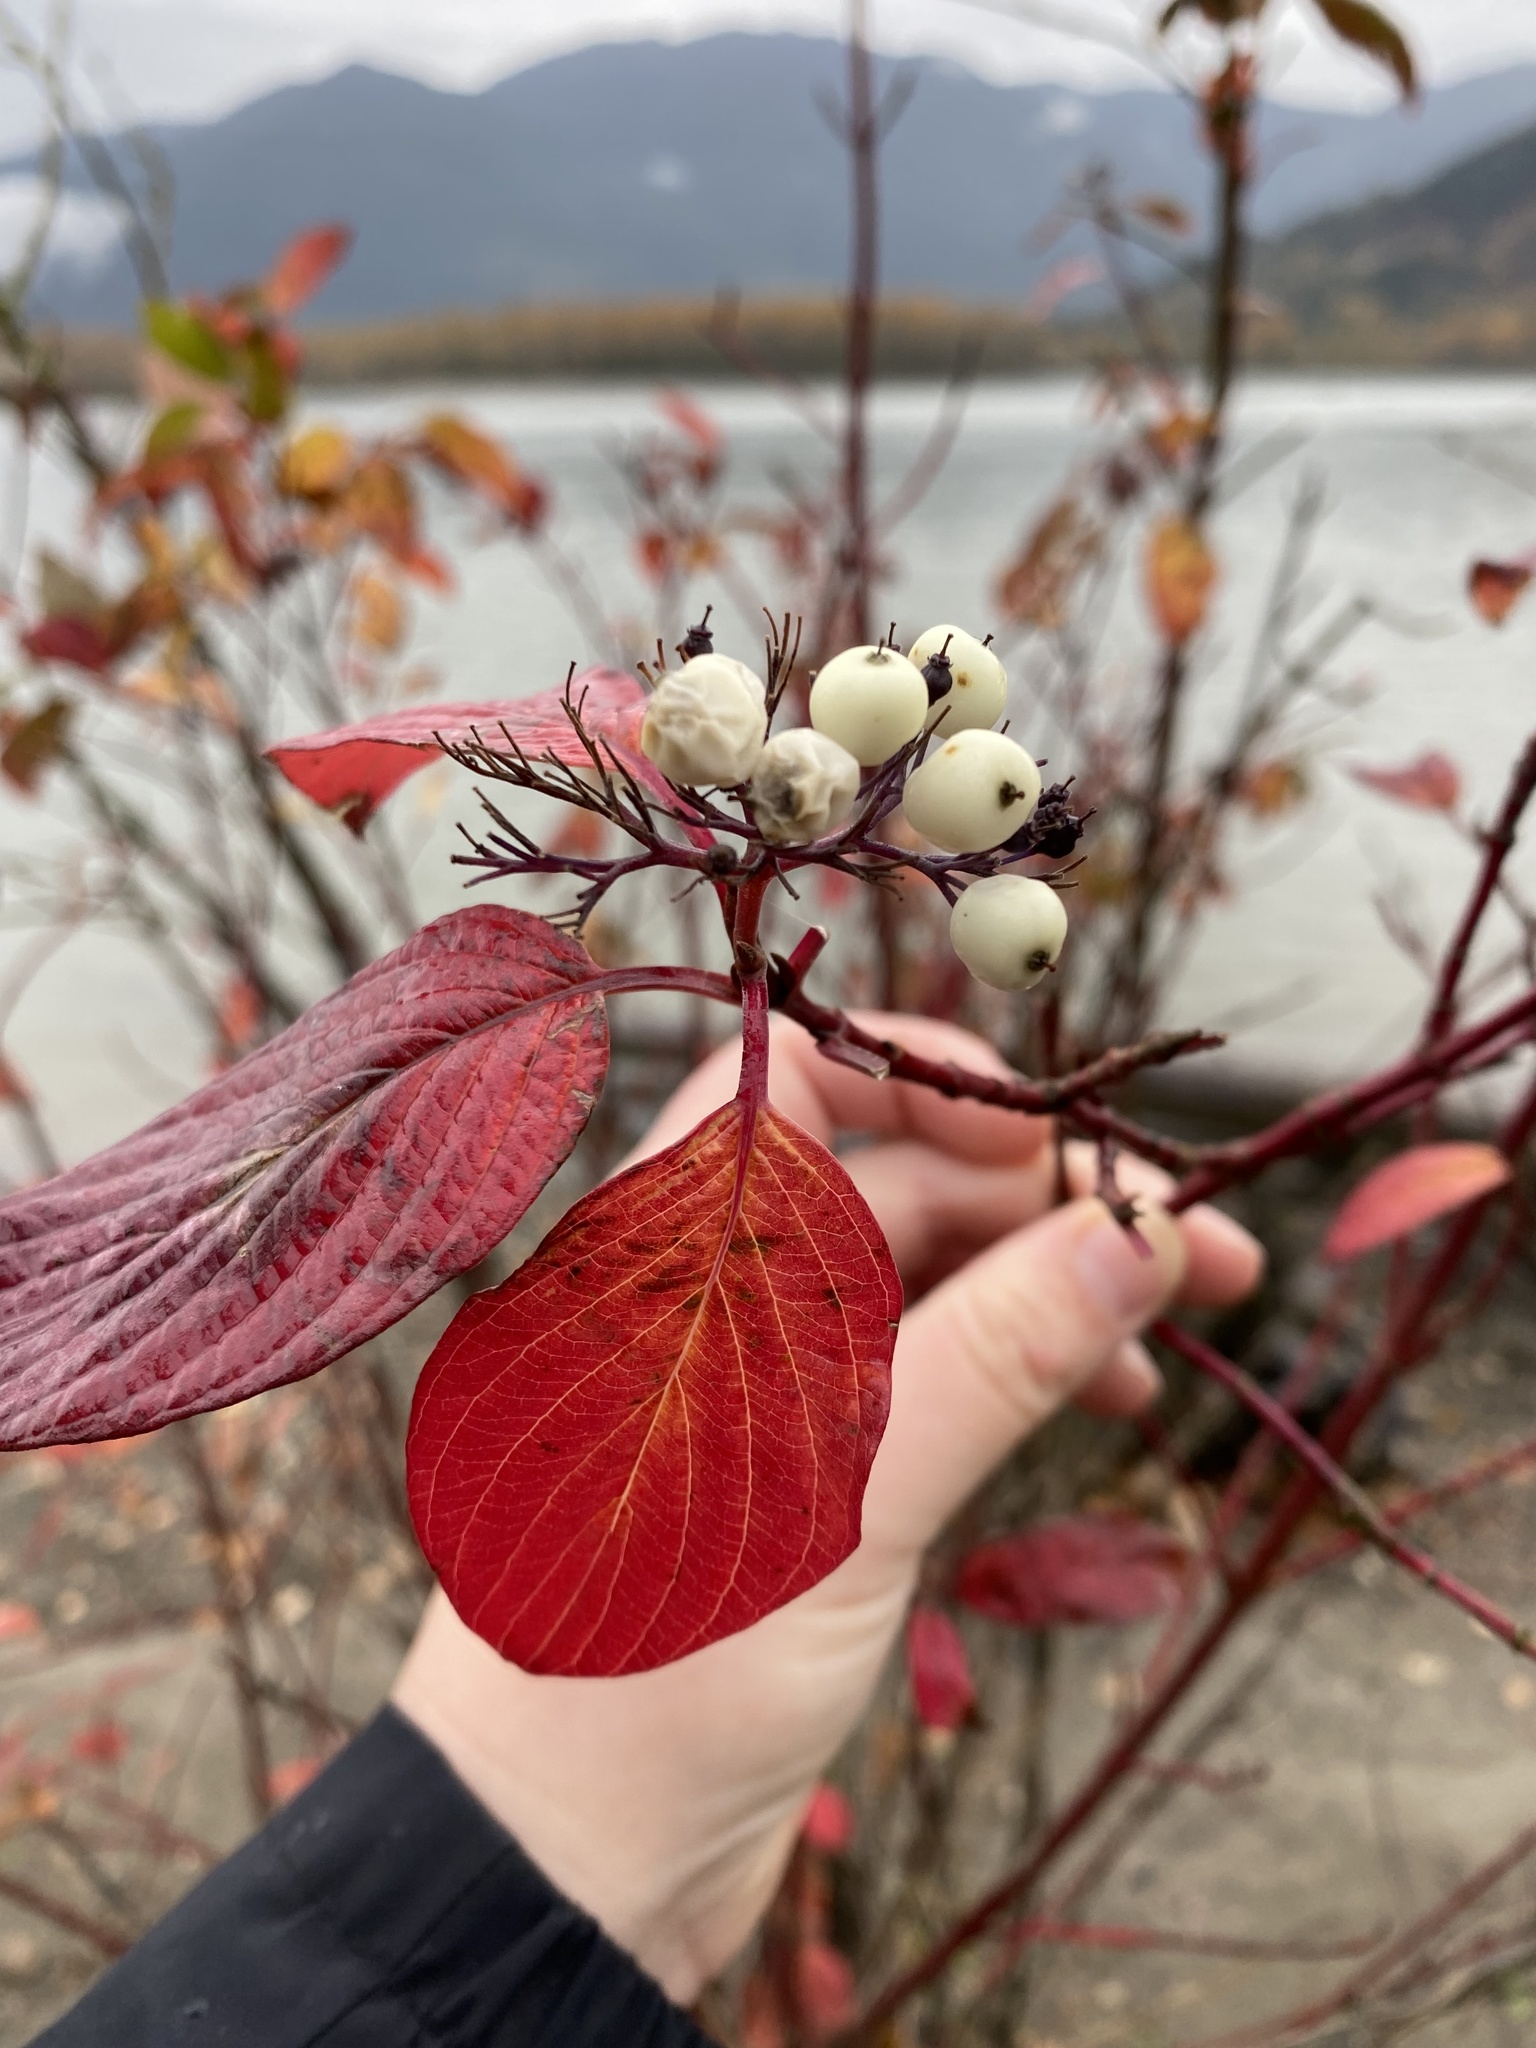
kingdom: Plantae
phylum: Tracheophyta
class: Magnoliopsida
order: Cornales
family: Cornaceae
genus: Cornus
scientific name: Cornus sericea
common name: Red-osier dogwood
